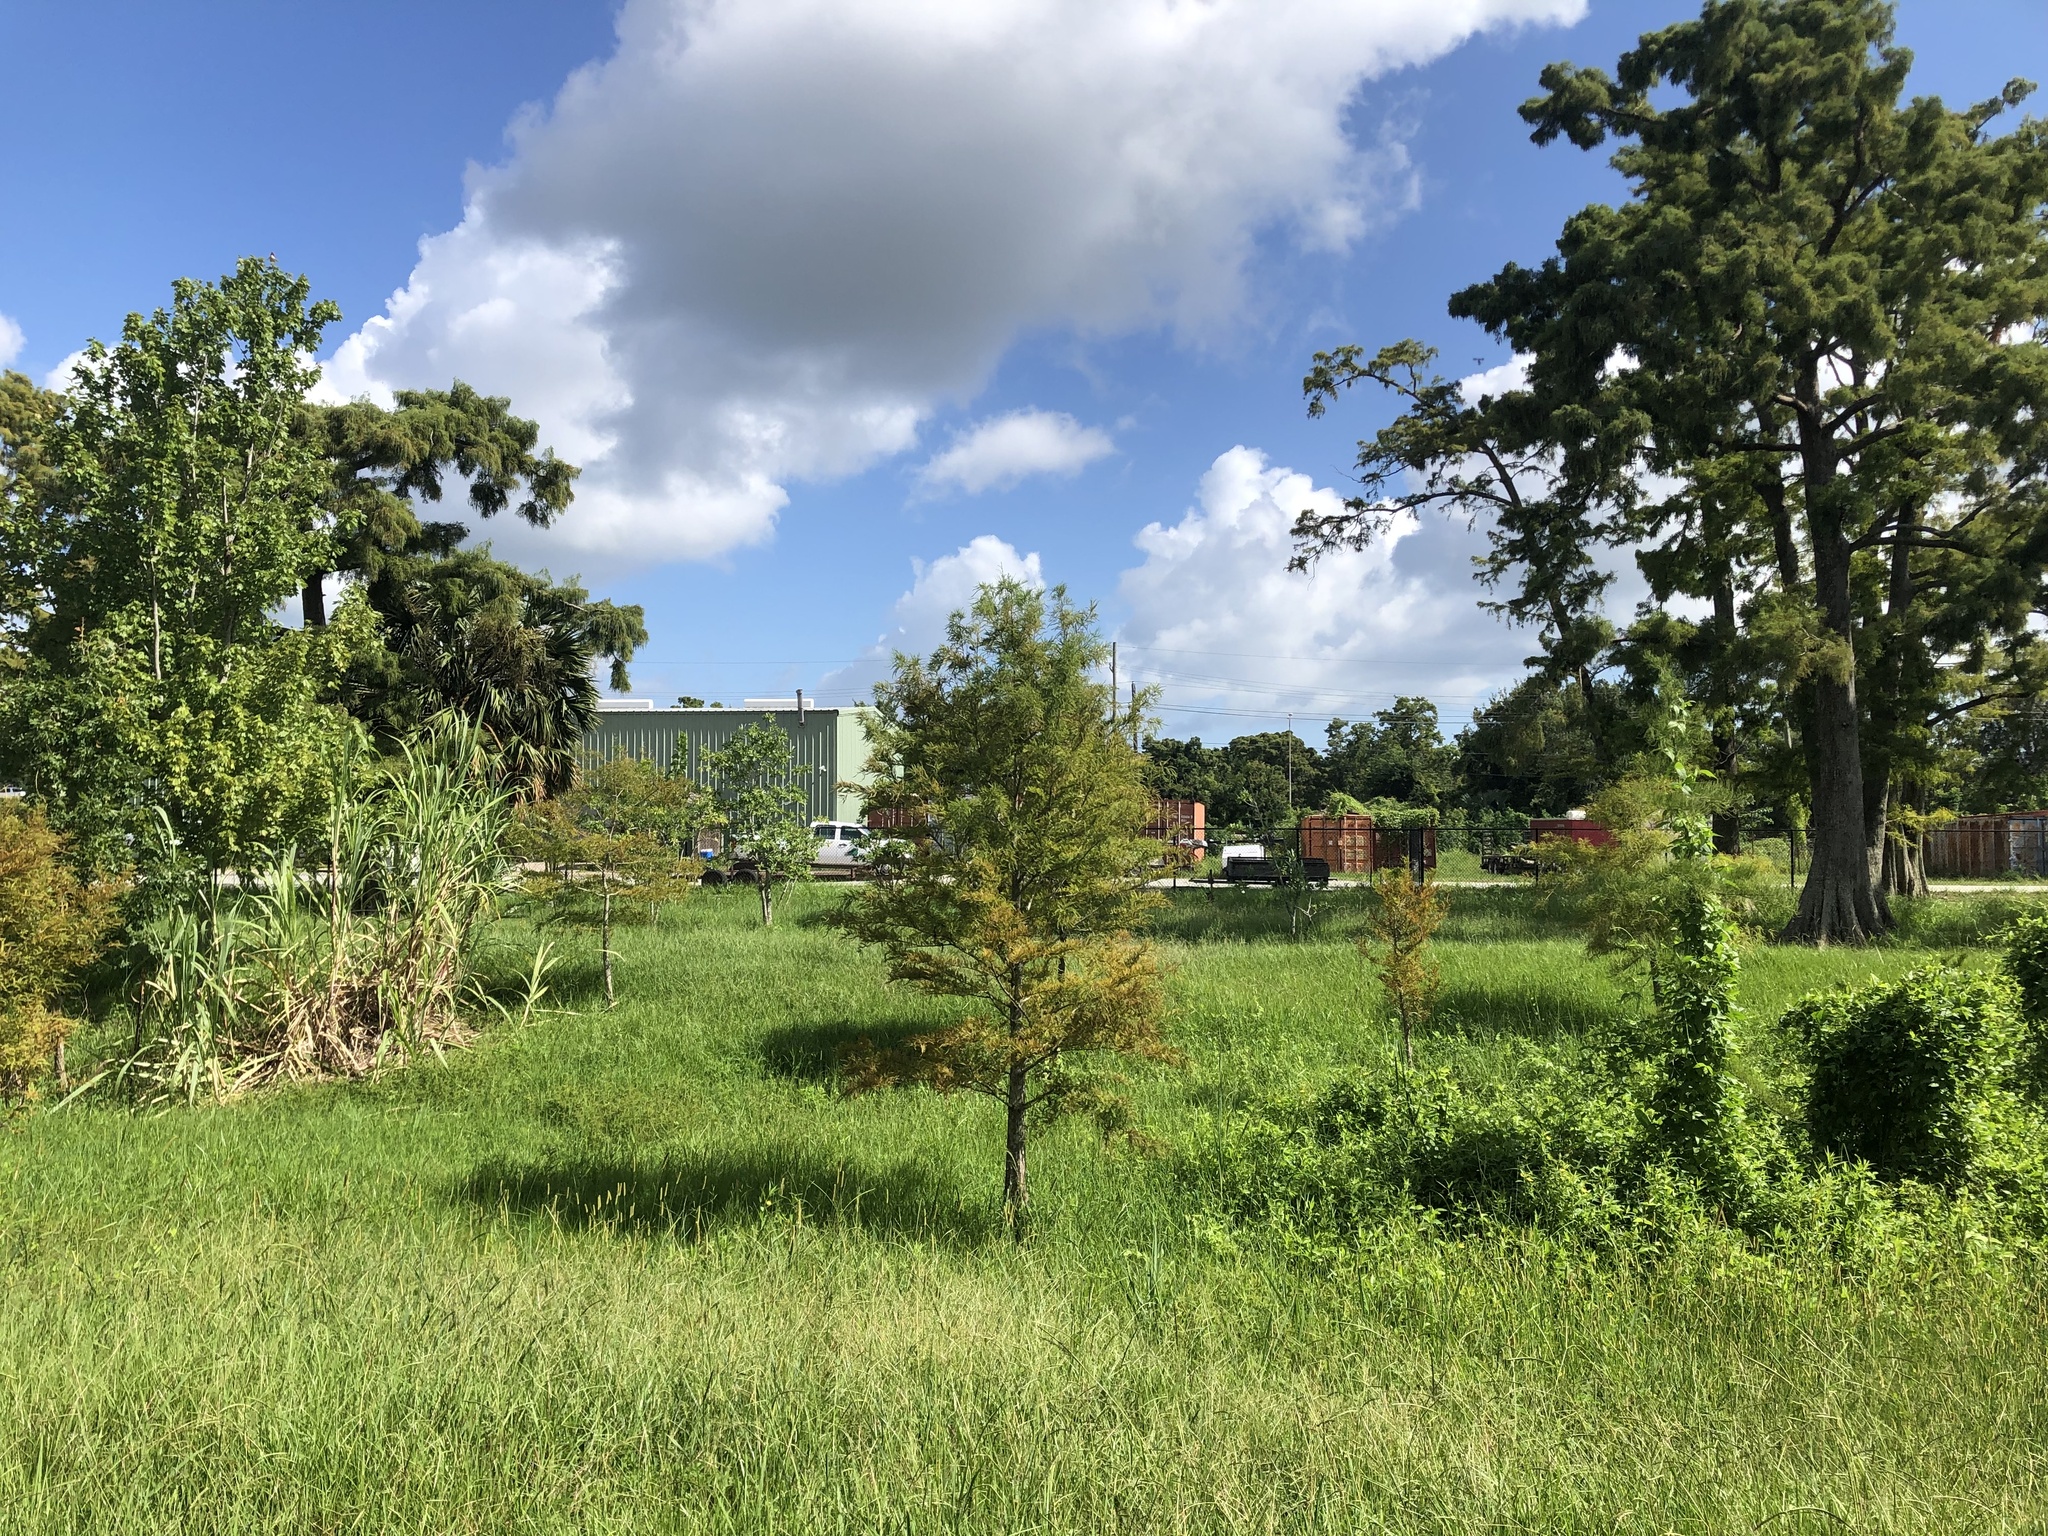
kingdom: Plantae
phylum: Tracheophyta
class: Pinopsida
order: Pinales
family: Cupressaceae
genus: Taxodium
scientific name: Taxodium distichum
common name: Bald cypress
